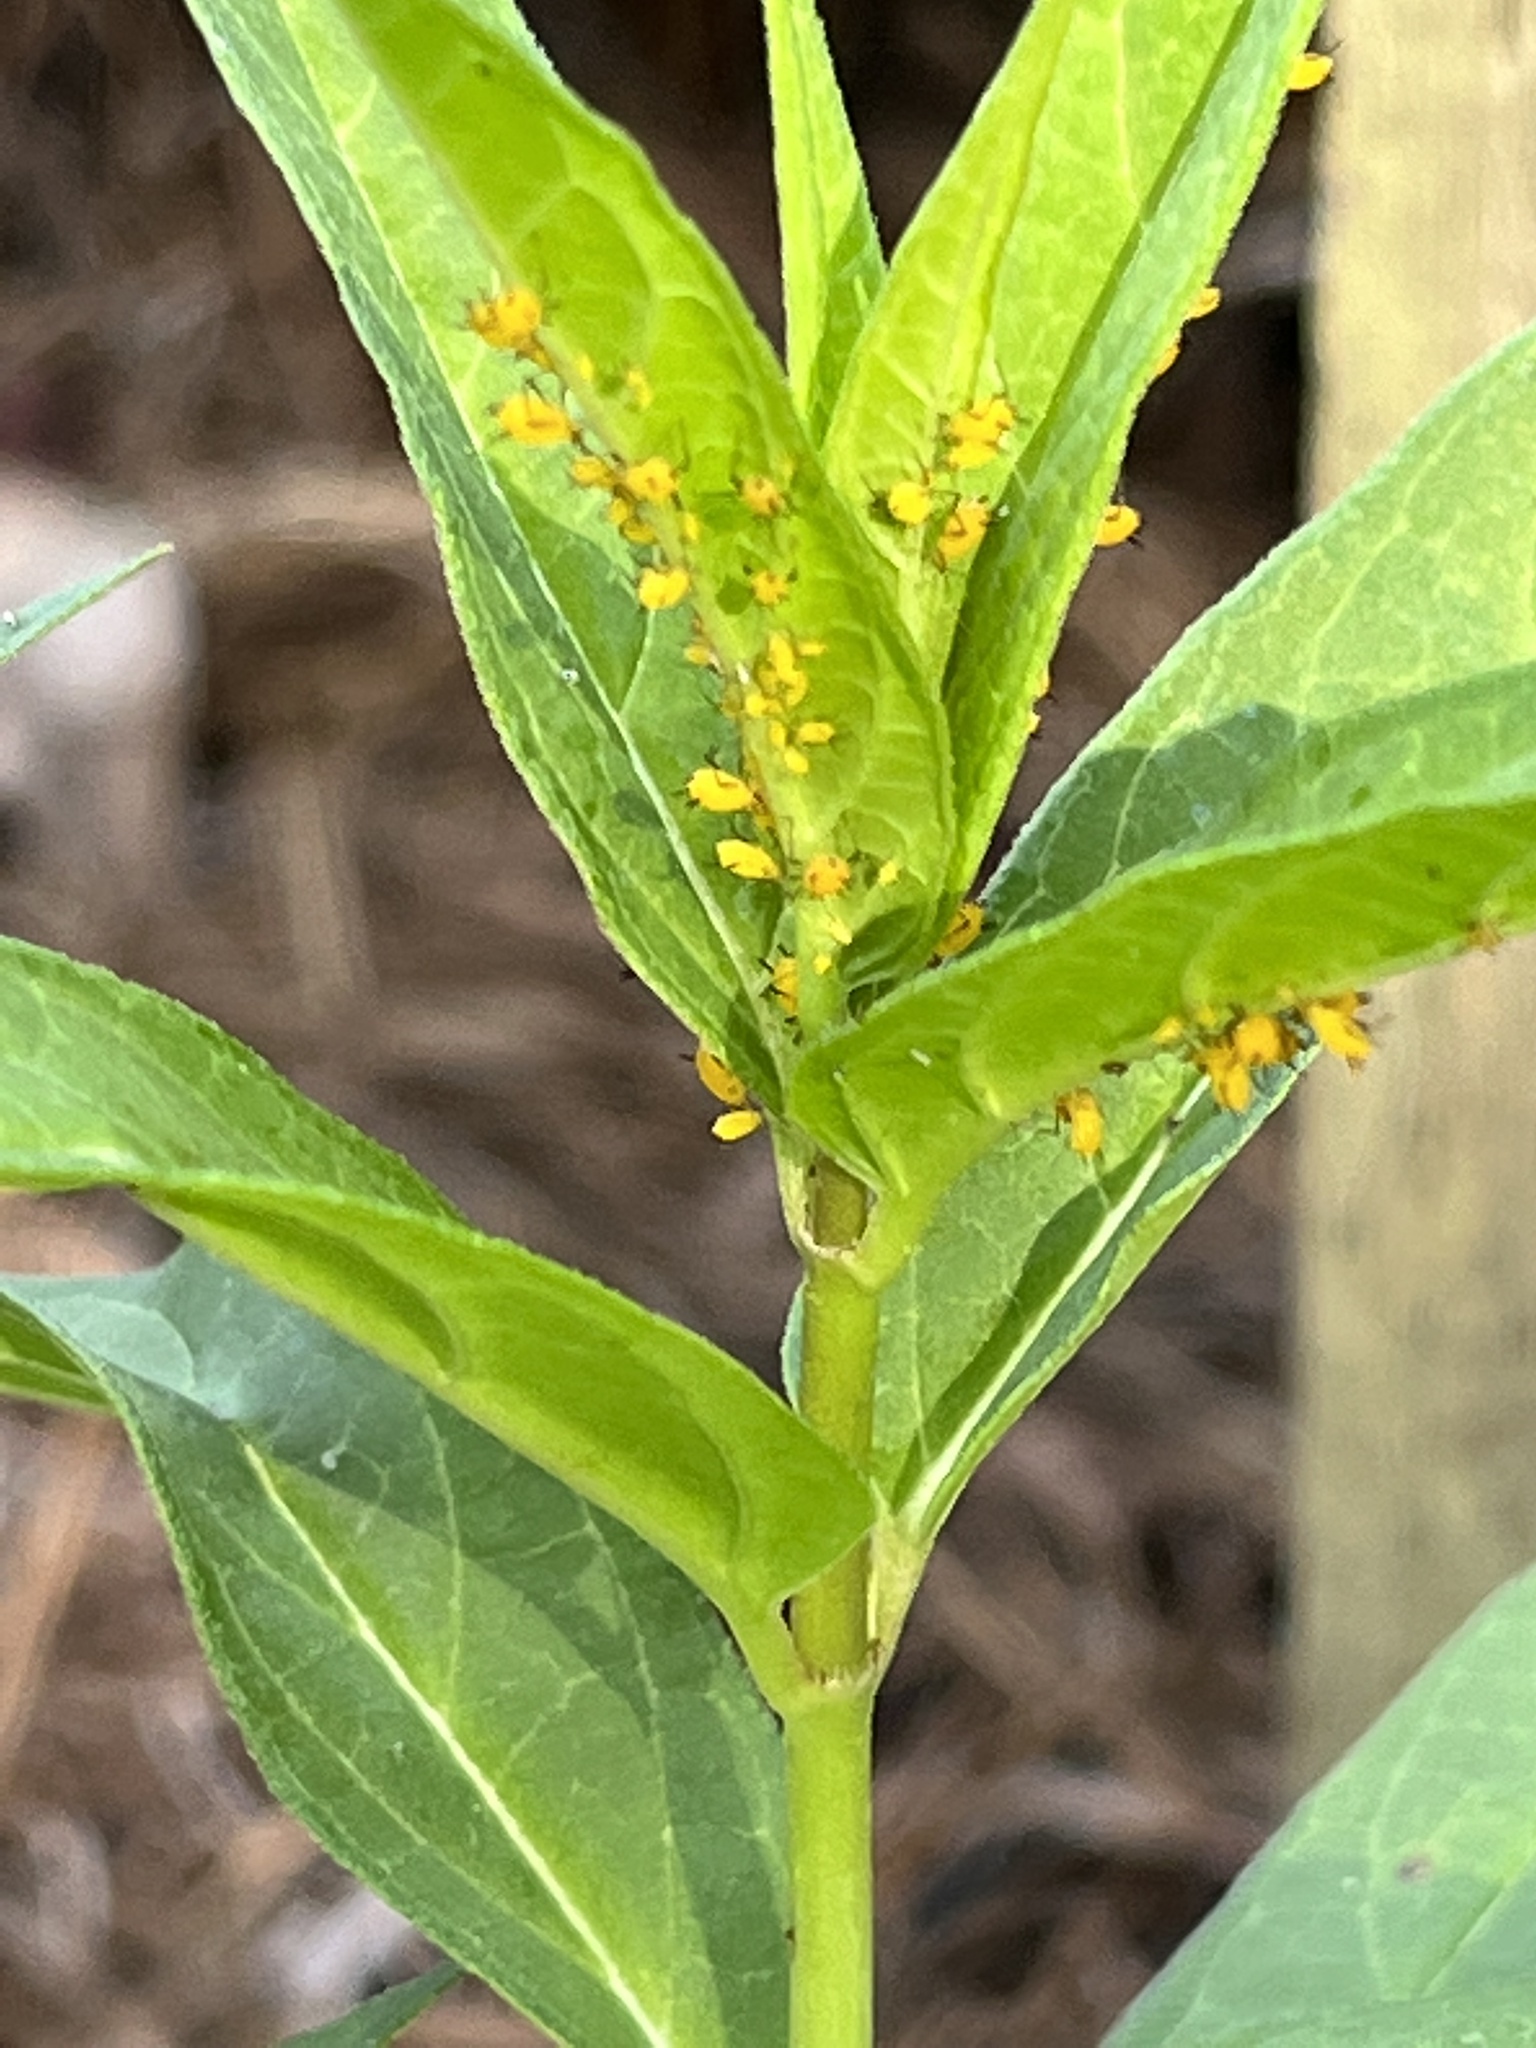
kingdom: Animalia
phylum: Arthropoda
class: Insecta
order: Hemiptera
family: Aphididae
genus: Aphis
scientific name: Aphis nerii
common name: Oleander aphid
